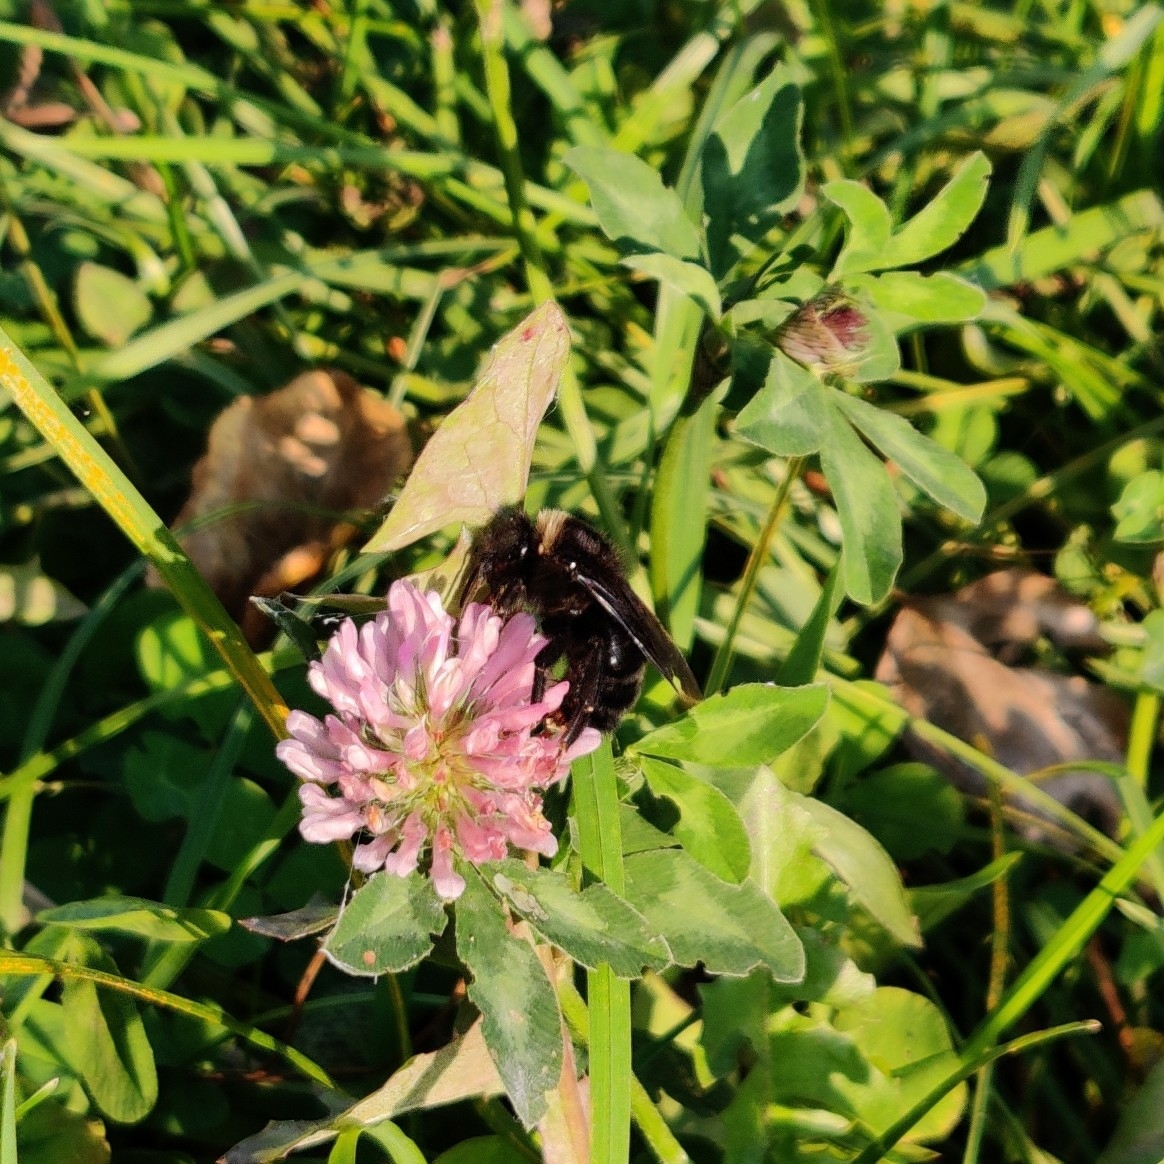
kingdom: Animalia
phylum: Arthropoda
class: Insecta
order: Hymenoptera
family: Apidae
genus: Bombus
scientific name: Bombus rupestris
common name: Hill cuckoo-bee
